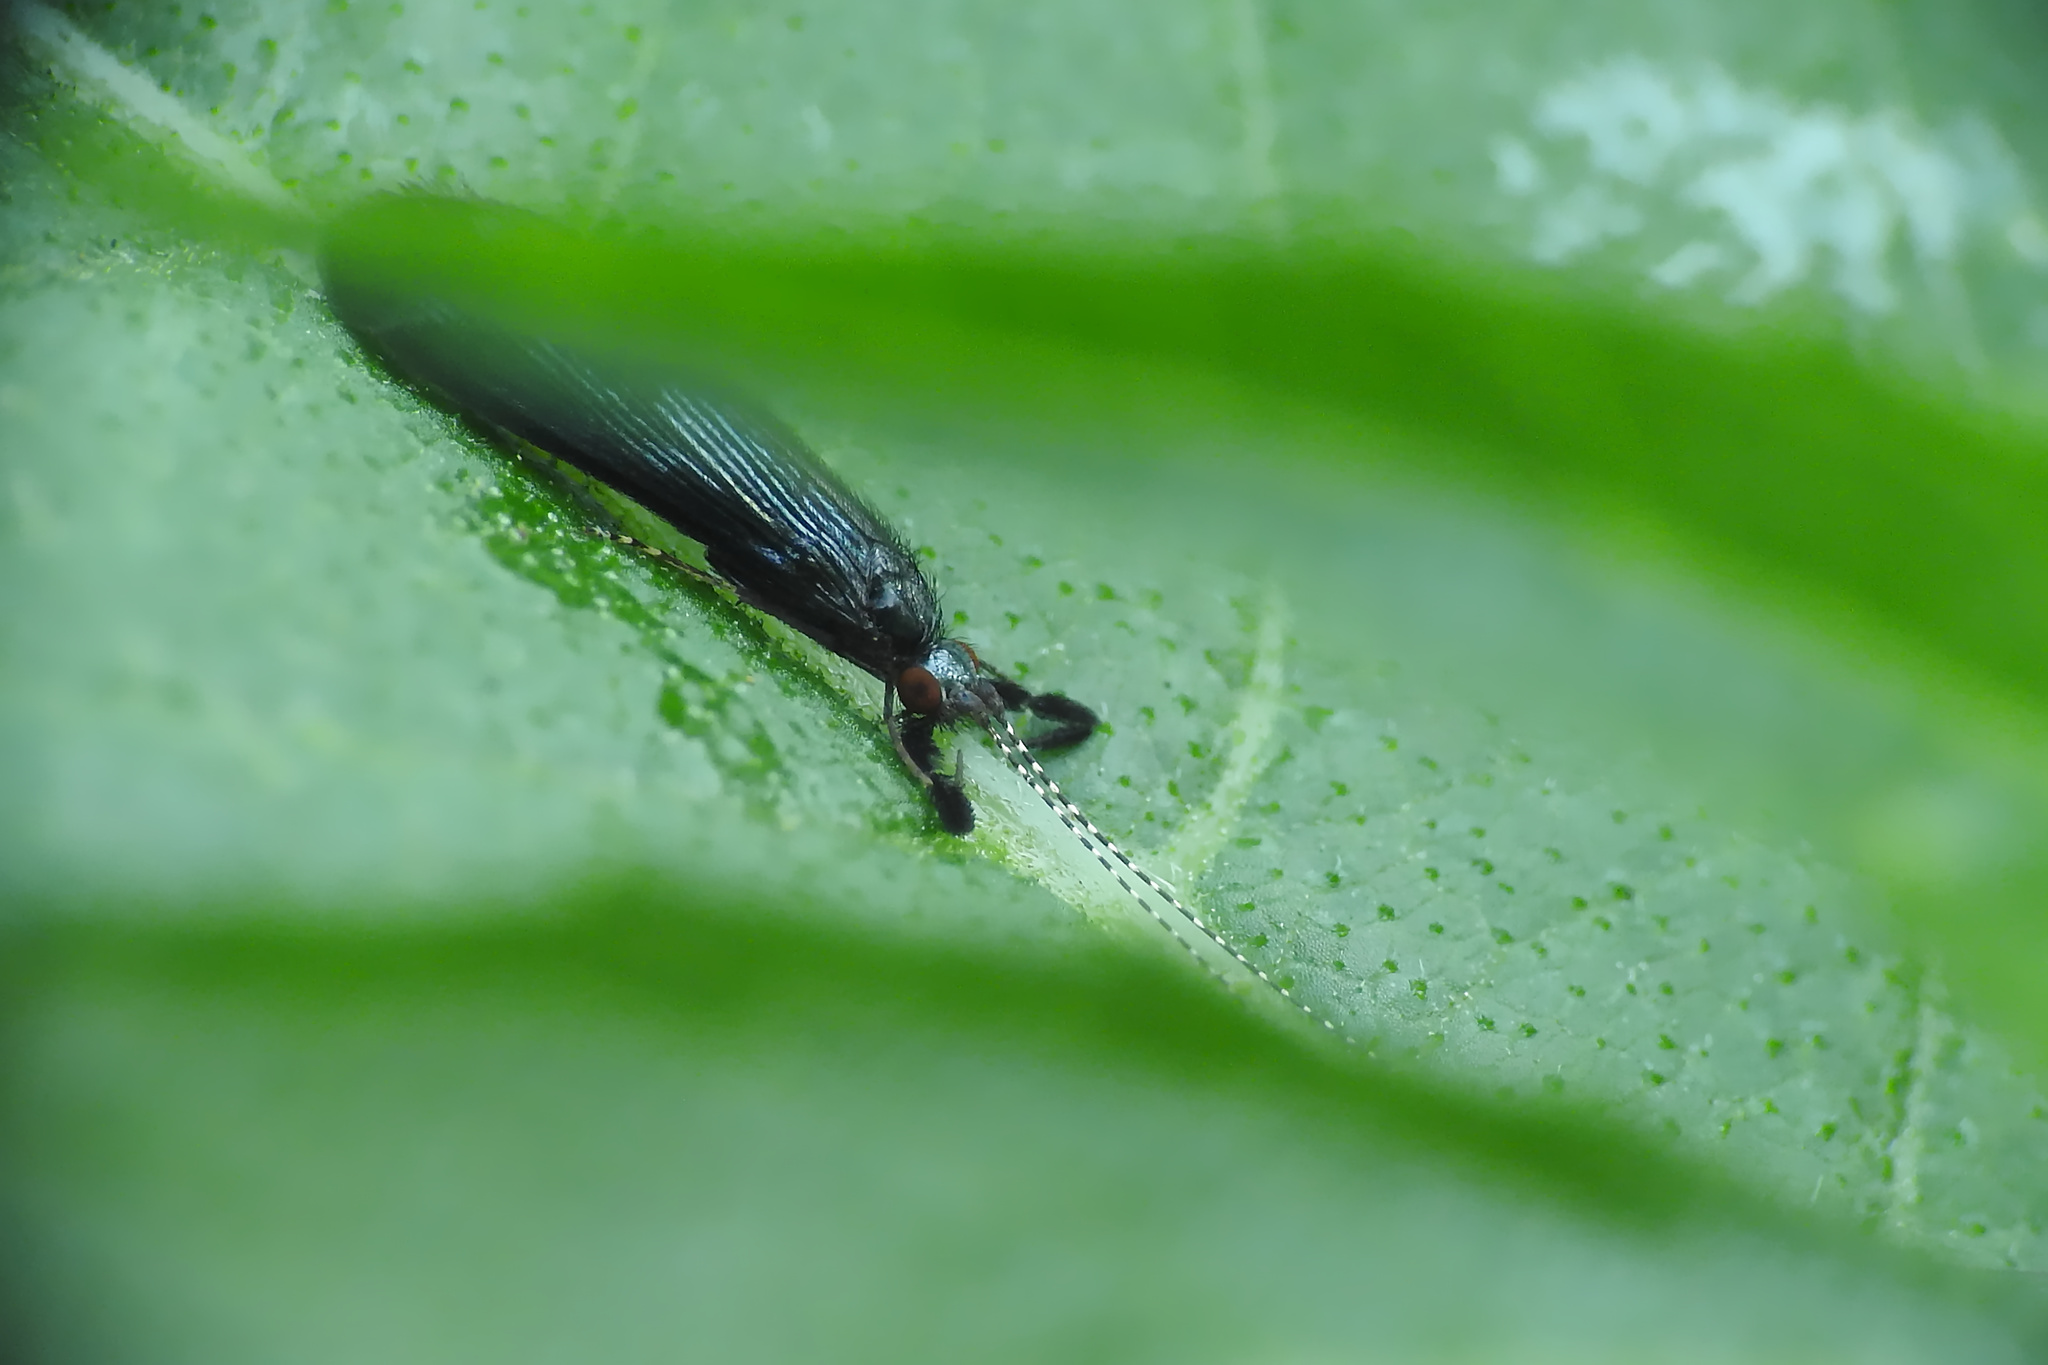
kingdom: Animalia
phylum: Arthropoda
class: Insecta
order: Trichoptera
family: Leptoceridae
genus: Mystacides
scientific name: Mystacides sepulchralis
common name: Black dancer caddisfly
